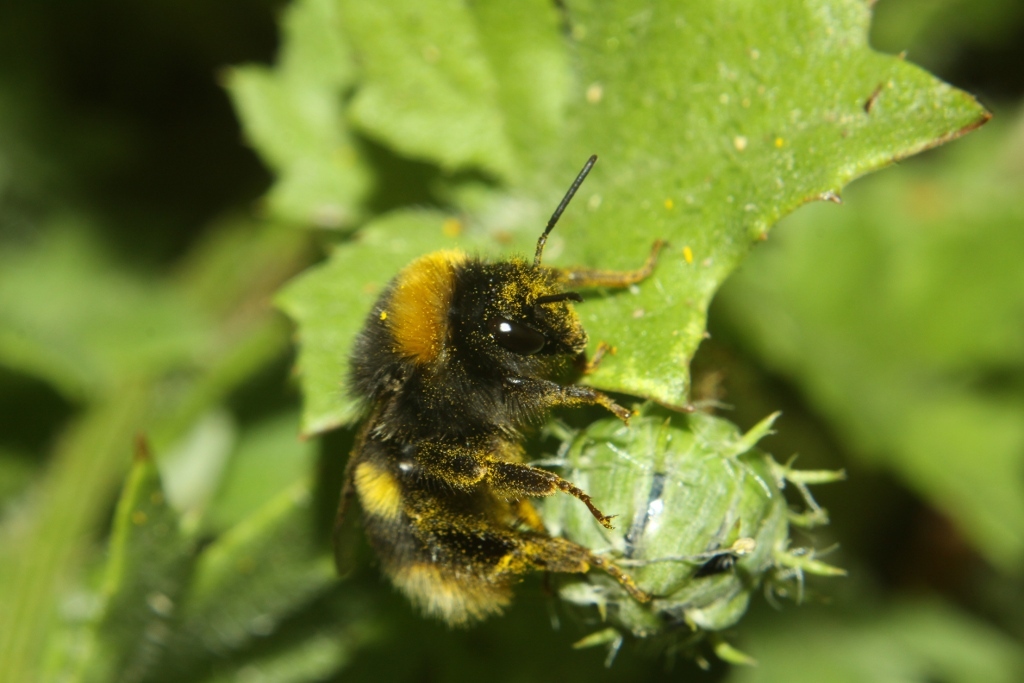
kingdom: Animalia
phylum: Arthropoda
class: Insecta
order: Hymenoptera
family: Apidae
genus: Bombus
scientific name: Bombus terrestris
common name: Buff-tailed bumblebee
